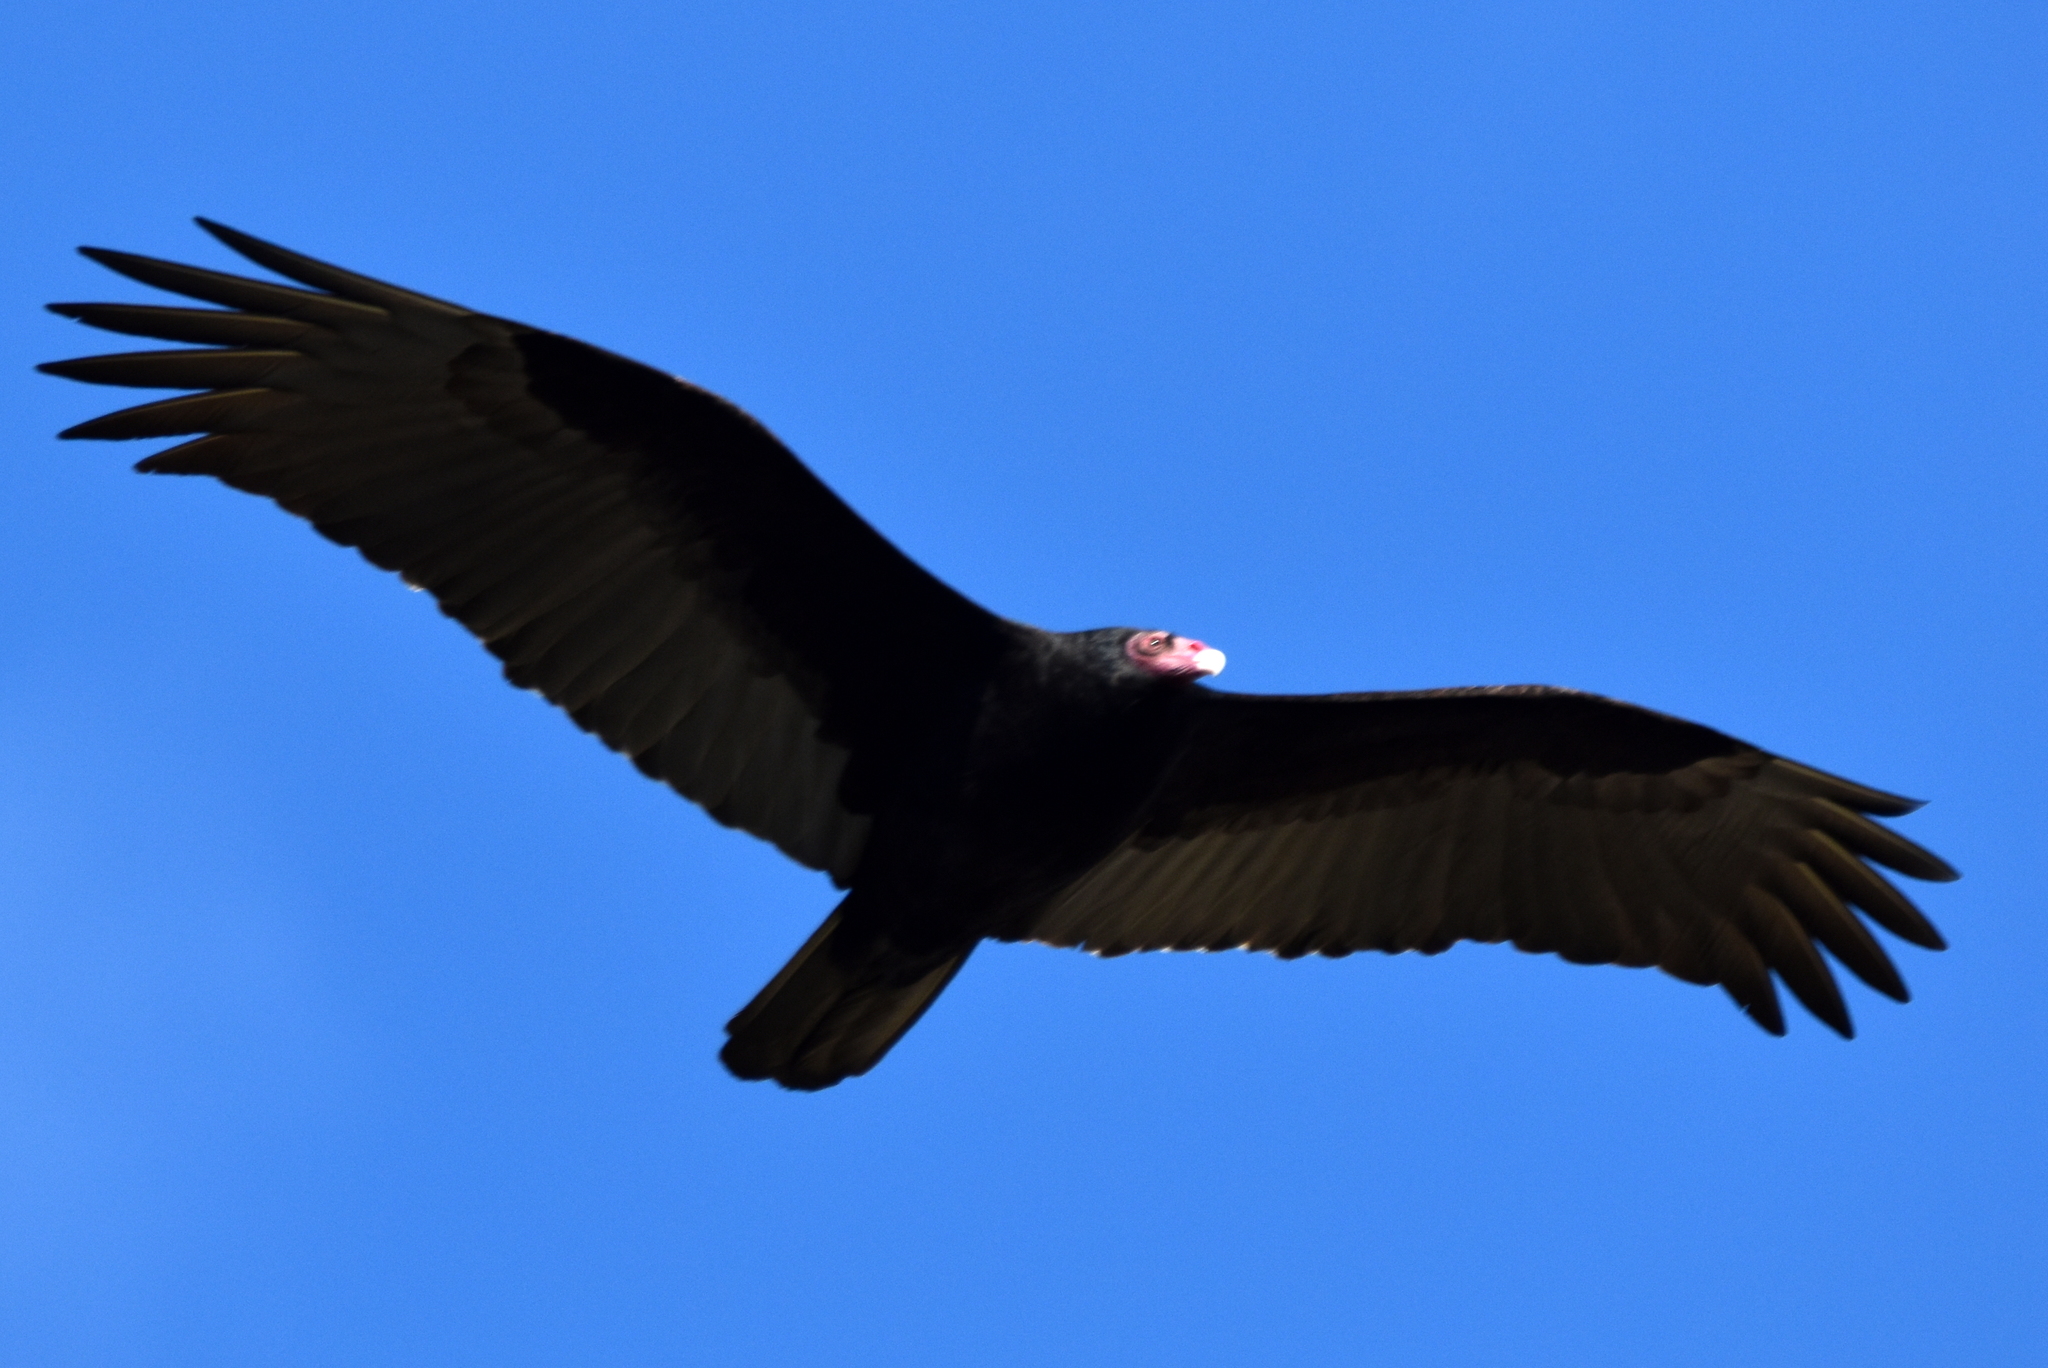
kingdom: Animalia
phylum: Chordata
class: Aves
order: Accipitriformes
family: Cathartidae
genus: Cathartes
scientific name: Cathartes aura
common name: Turkey vulture
